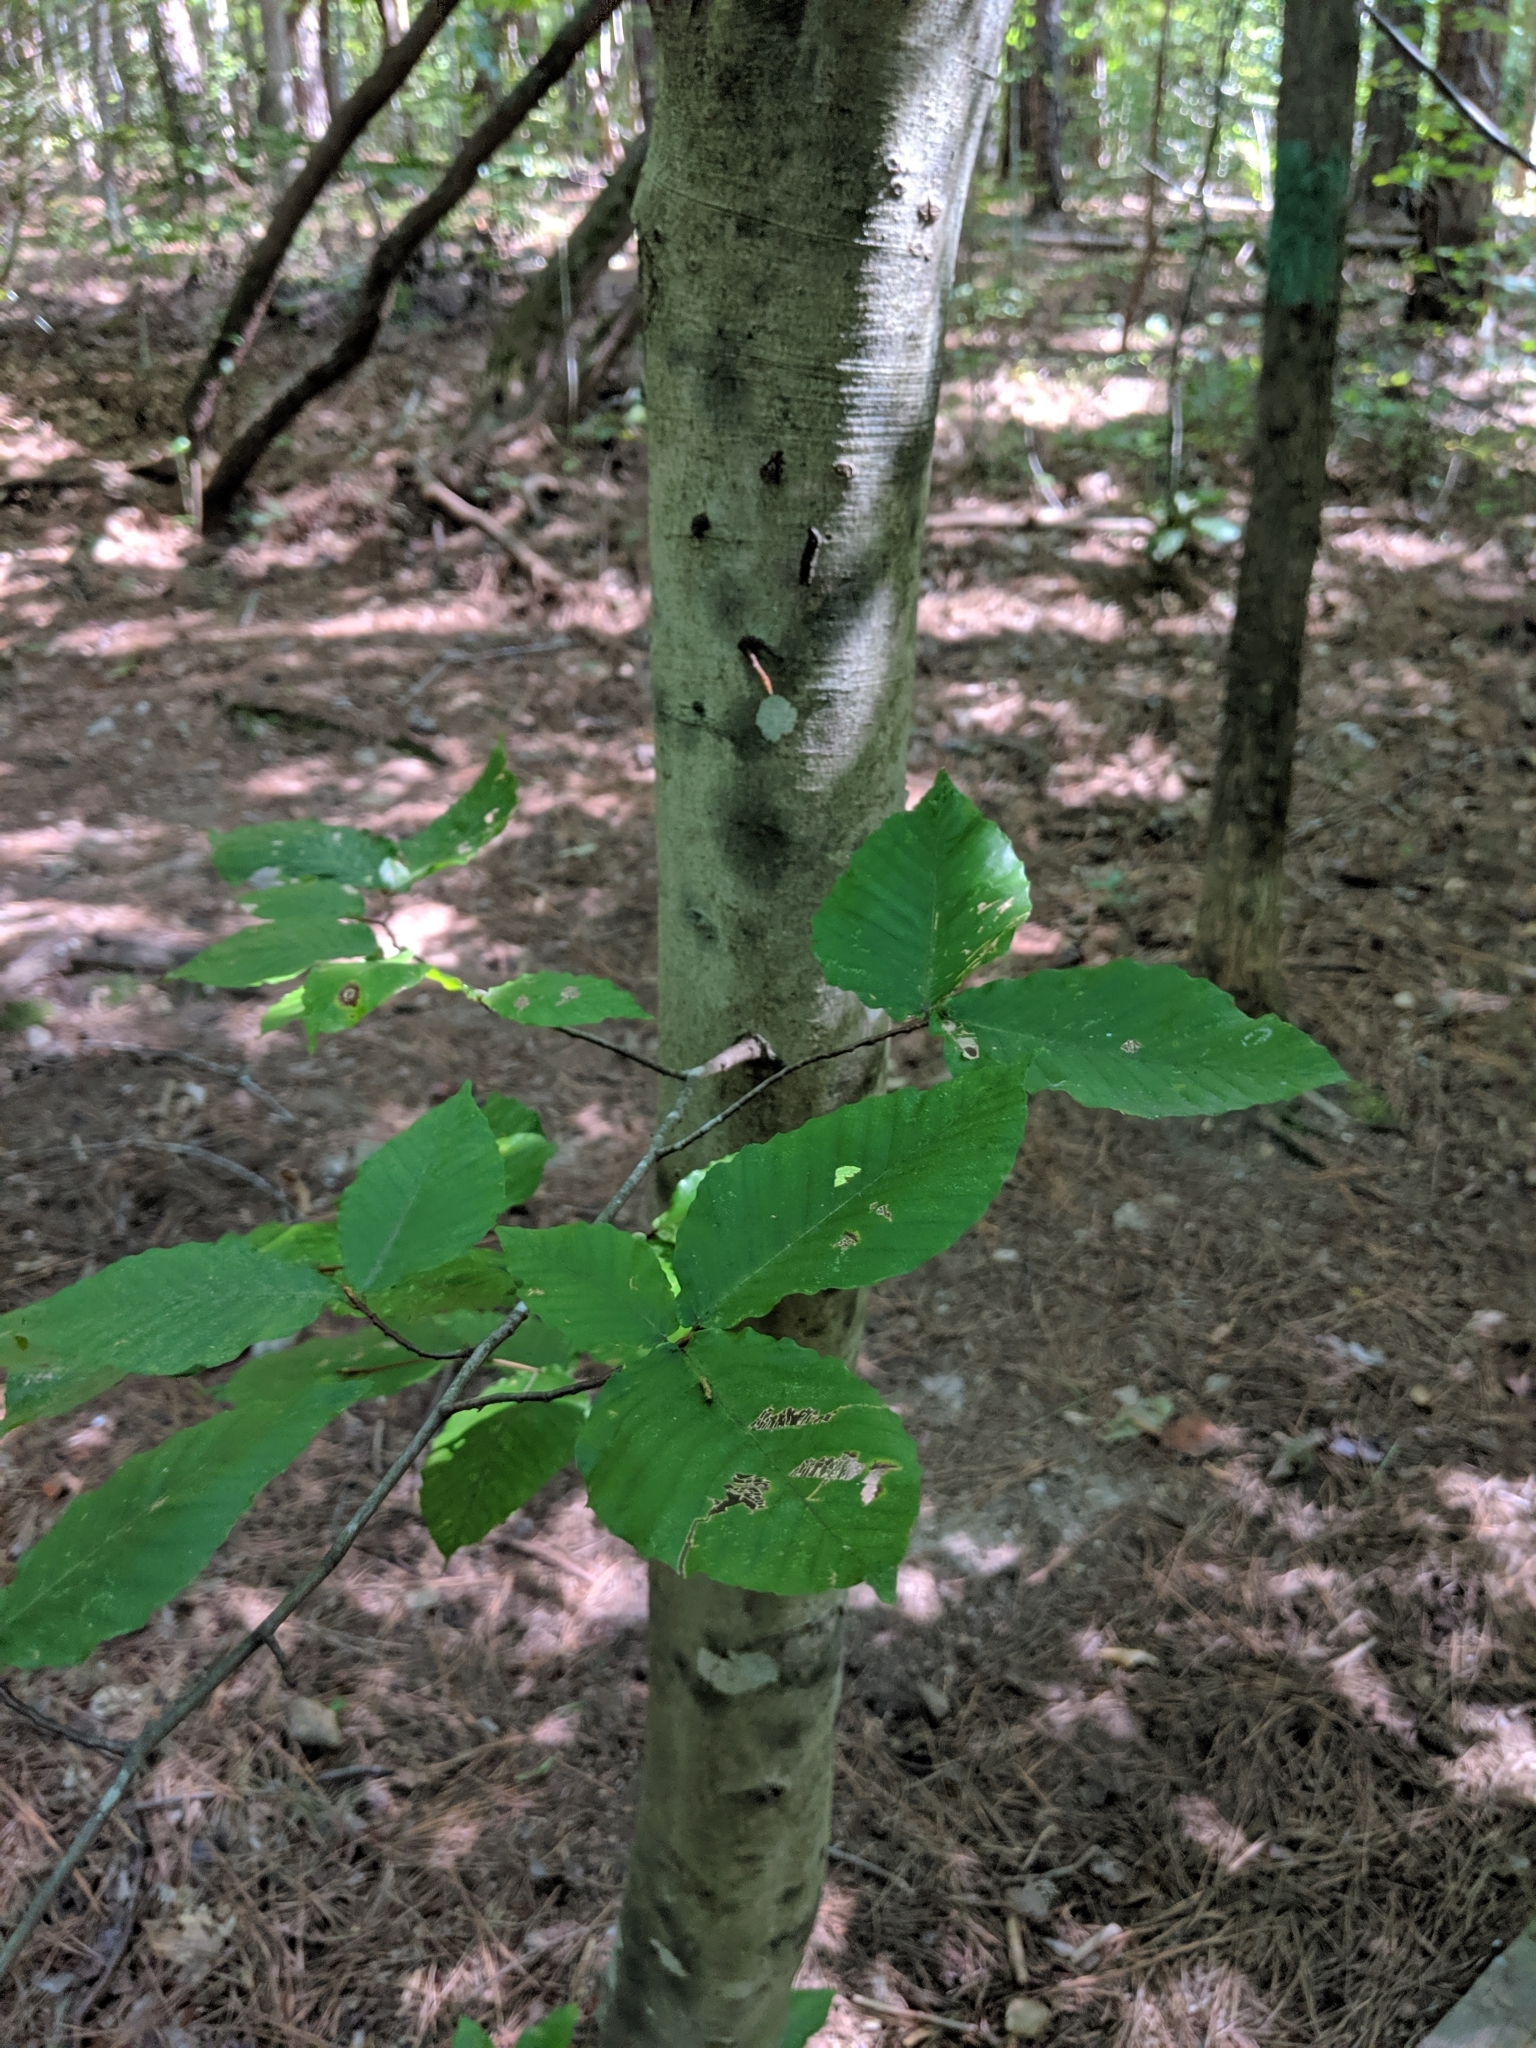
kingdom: Plantae
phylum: Tracheophyta
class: Magnoliopsida
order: Fagales
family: Fagaceae
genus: Fagus
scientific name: Fagus grandifolia
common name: American beech
